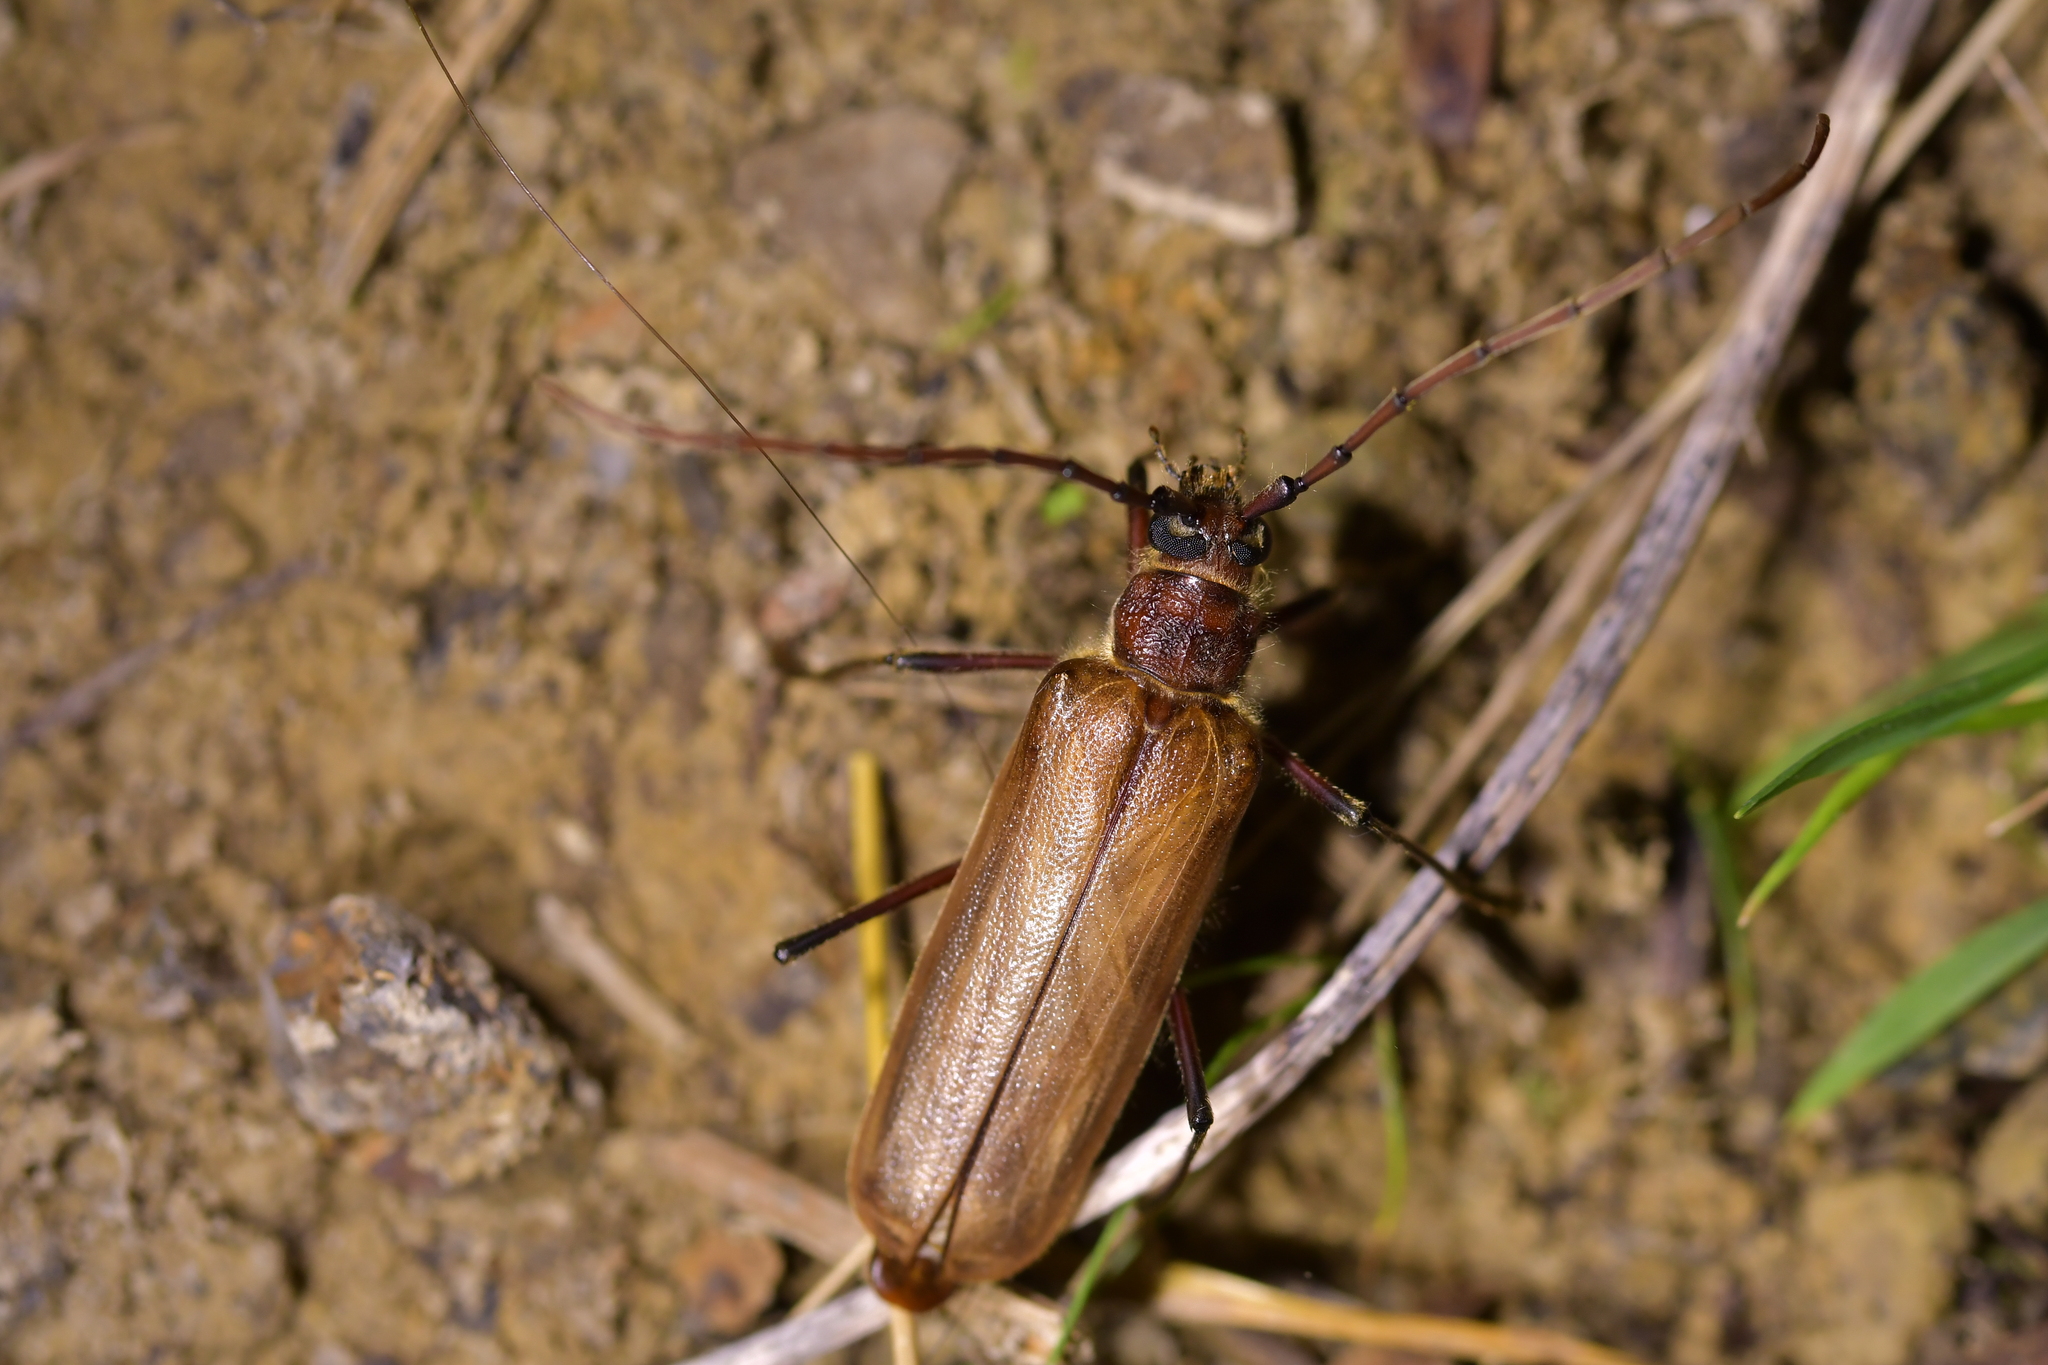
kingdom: Animalia
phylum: Arthropoda
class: Insecta
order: Coleoptera
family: Cerambycidae
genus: Ochrocydus
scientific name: Ochrocydus huttoni
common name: Kanuka longhorn
